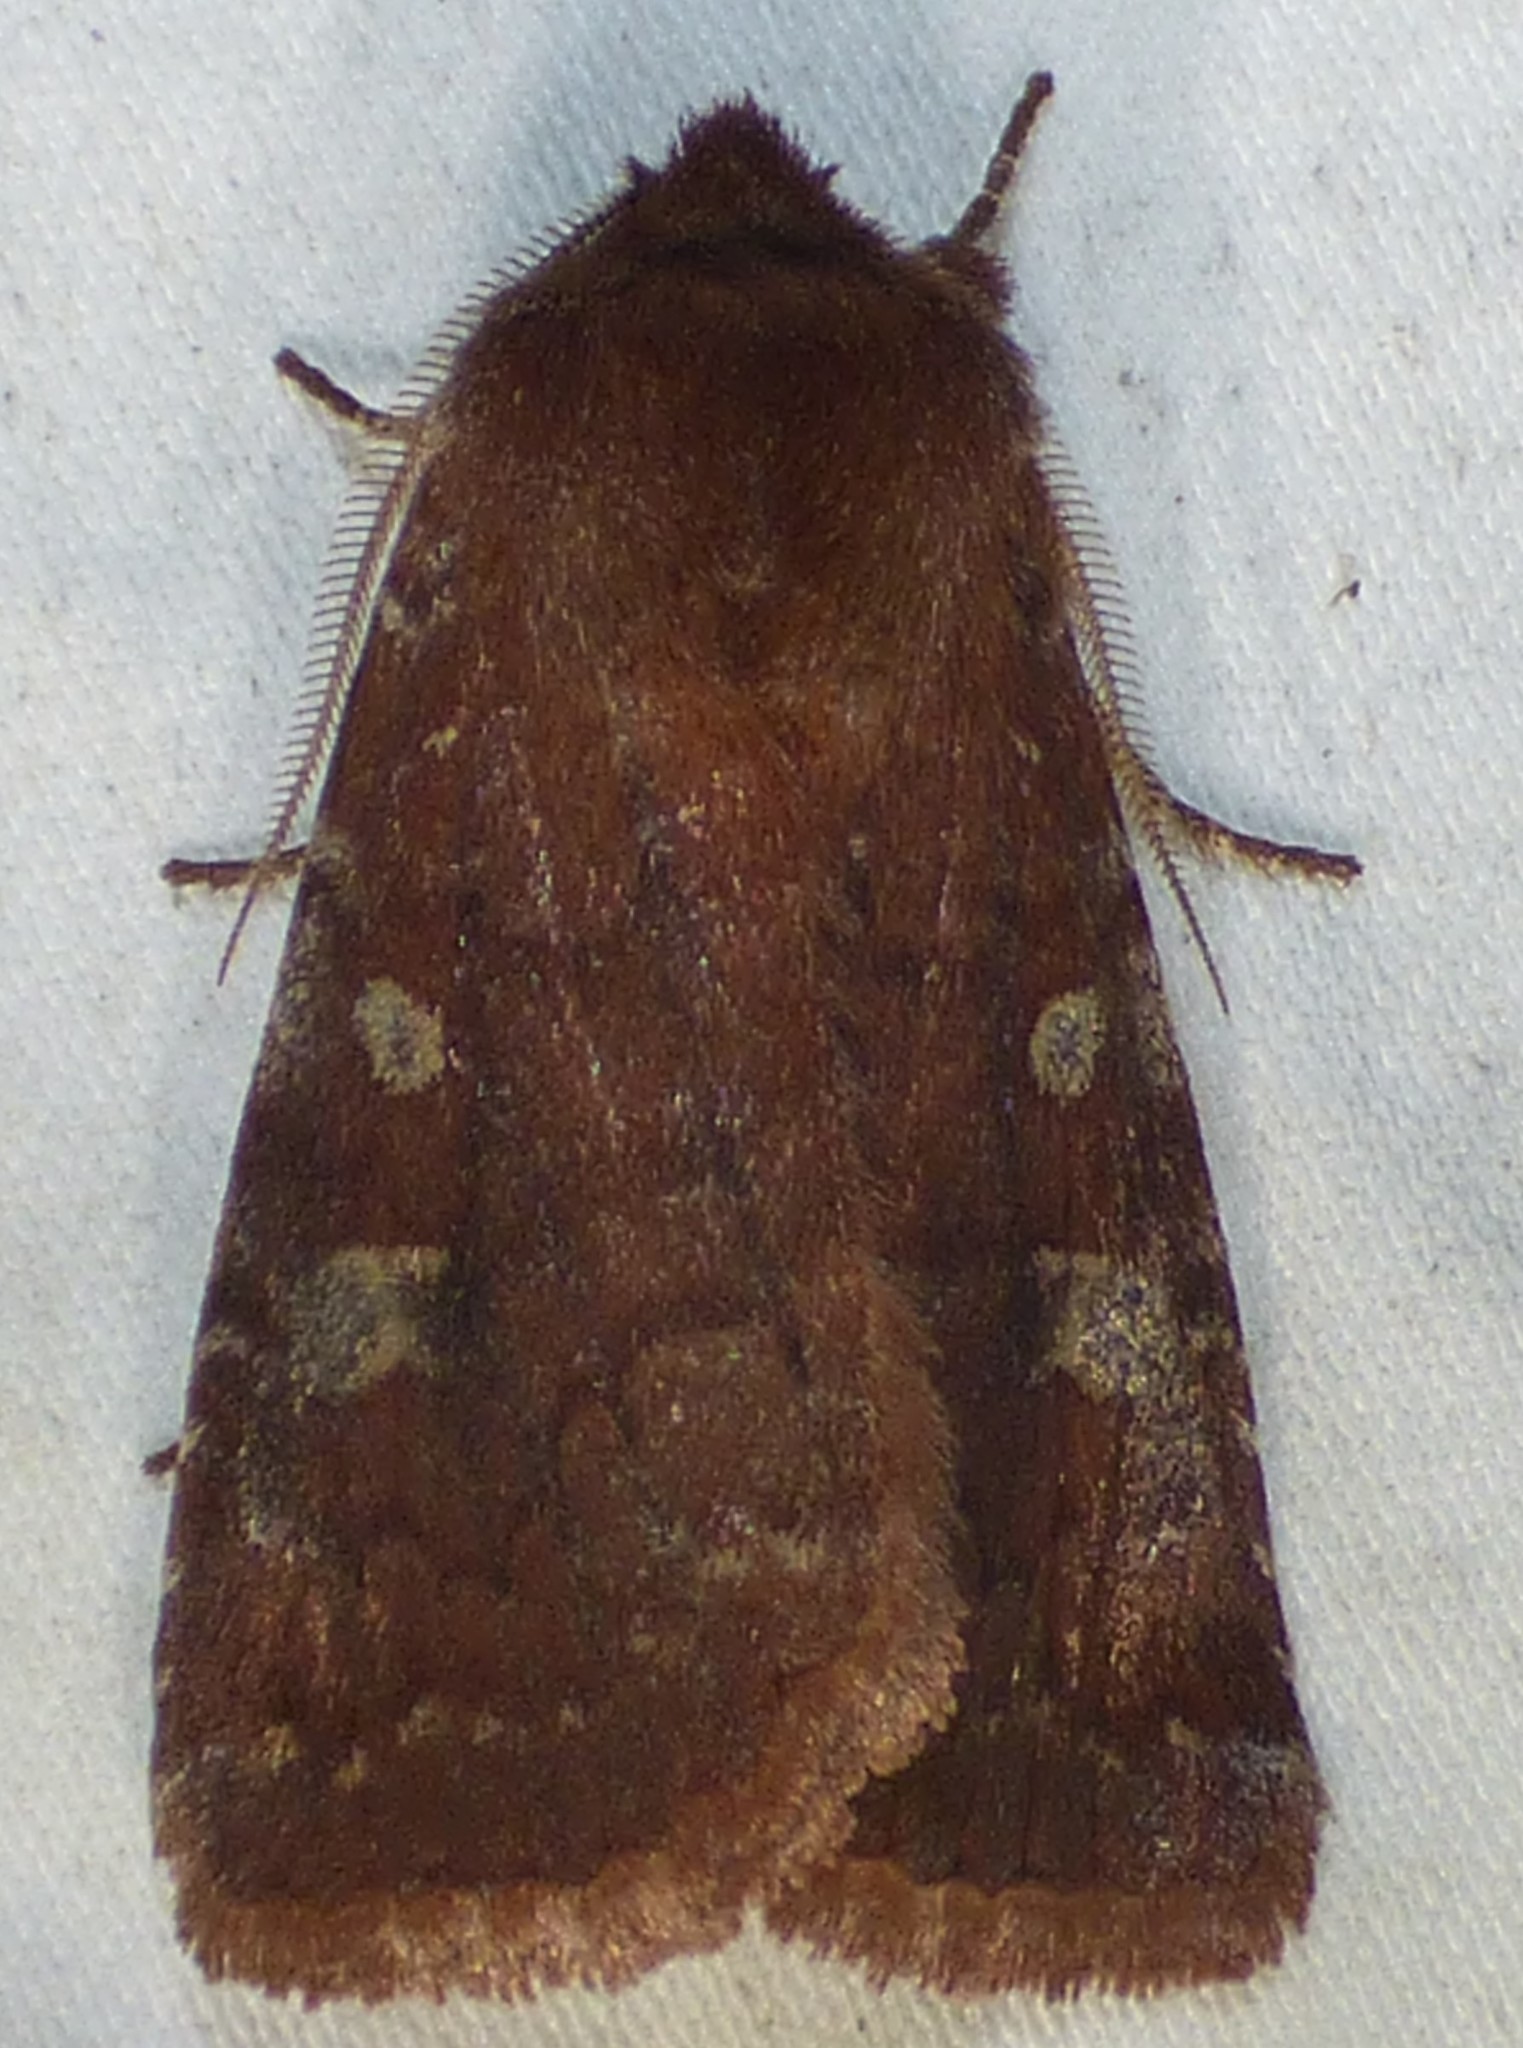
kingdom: Animalia
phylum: Arthropoda
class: Insecta
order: Lepidoptera
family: Noctuidae
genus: Cerastis
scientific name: Cerastis tenebrifera
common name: Reddish speckled dart
